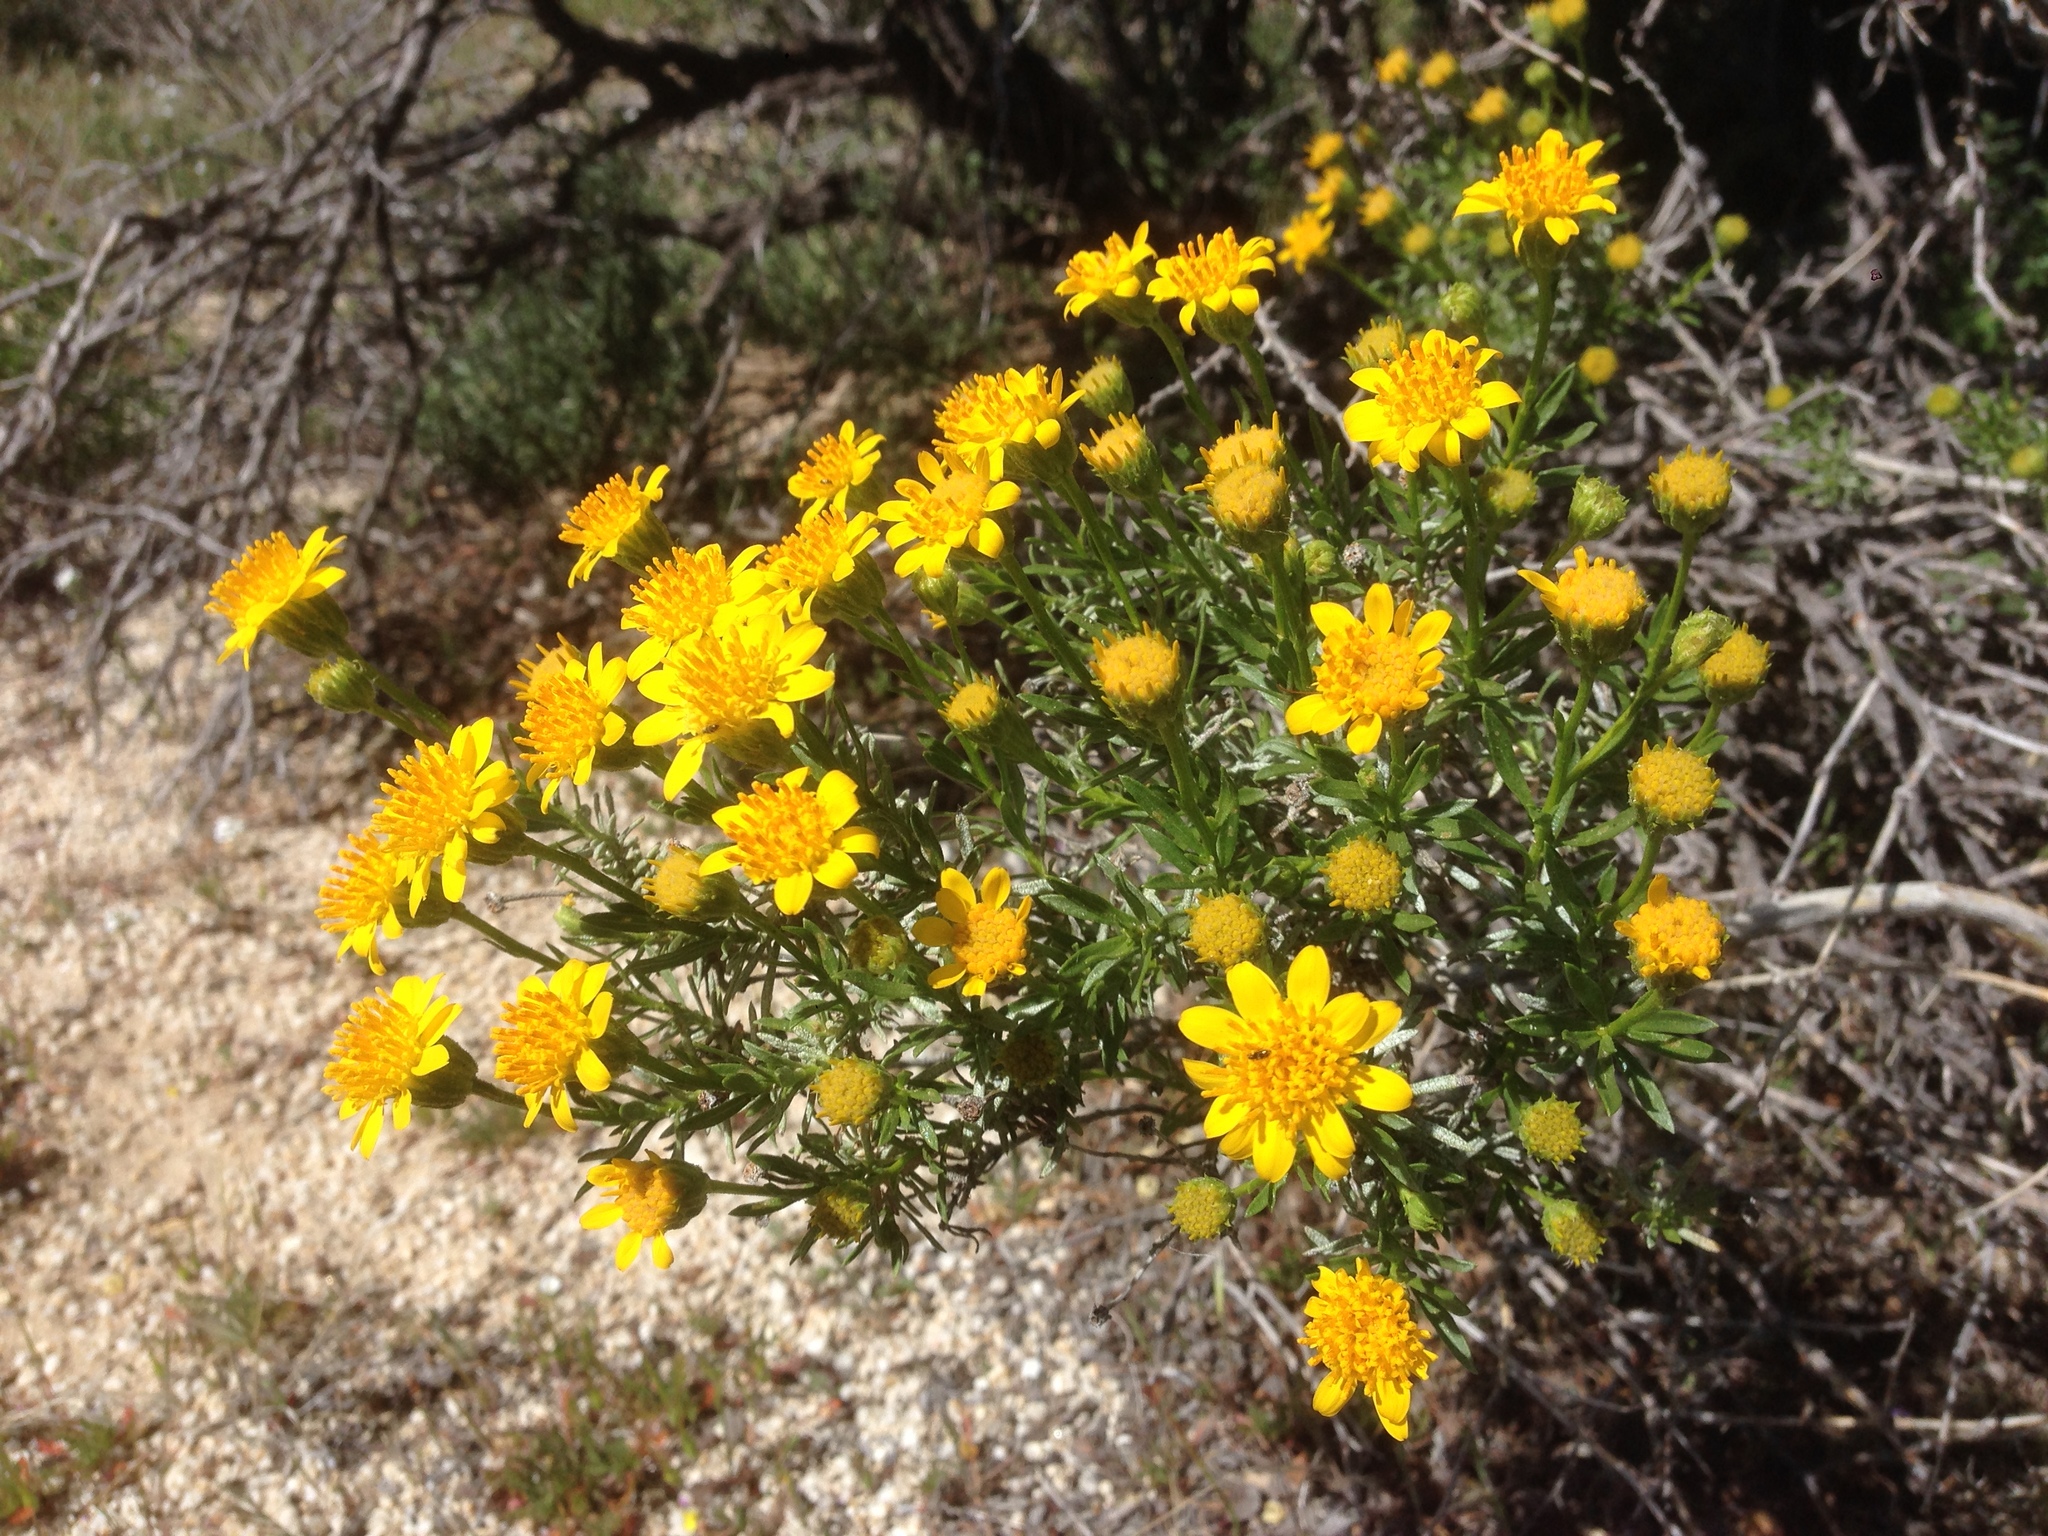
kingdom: Plantae
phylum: Tracheophyta
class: Magnoliopsida
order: Asterales
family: Asteraceae
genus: Ericameria
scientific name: Ericameria linearifolia
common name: Interior goldenbush
